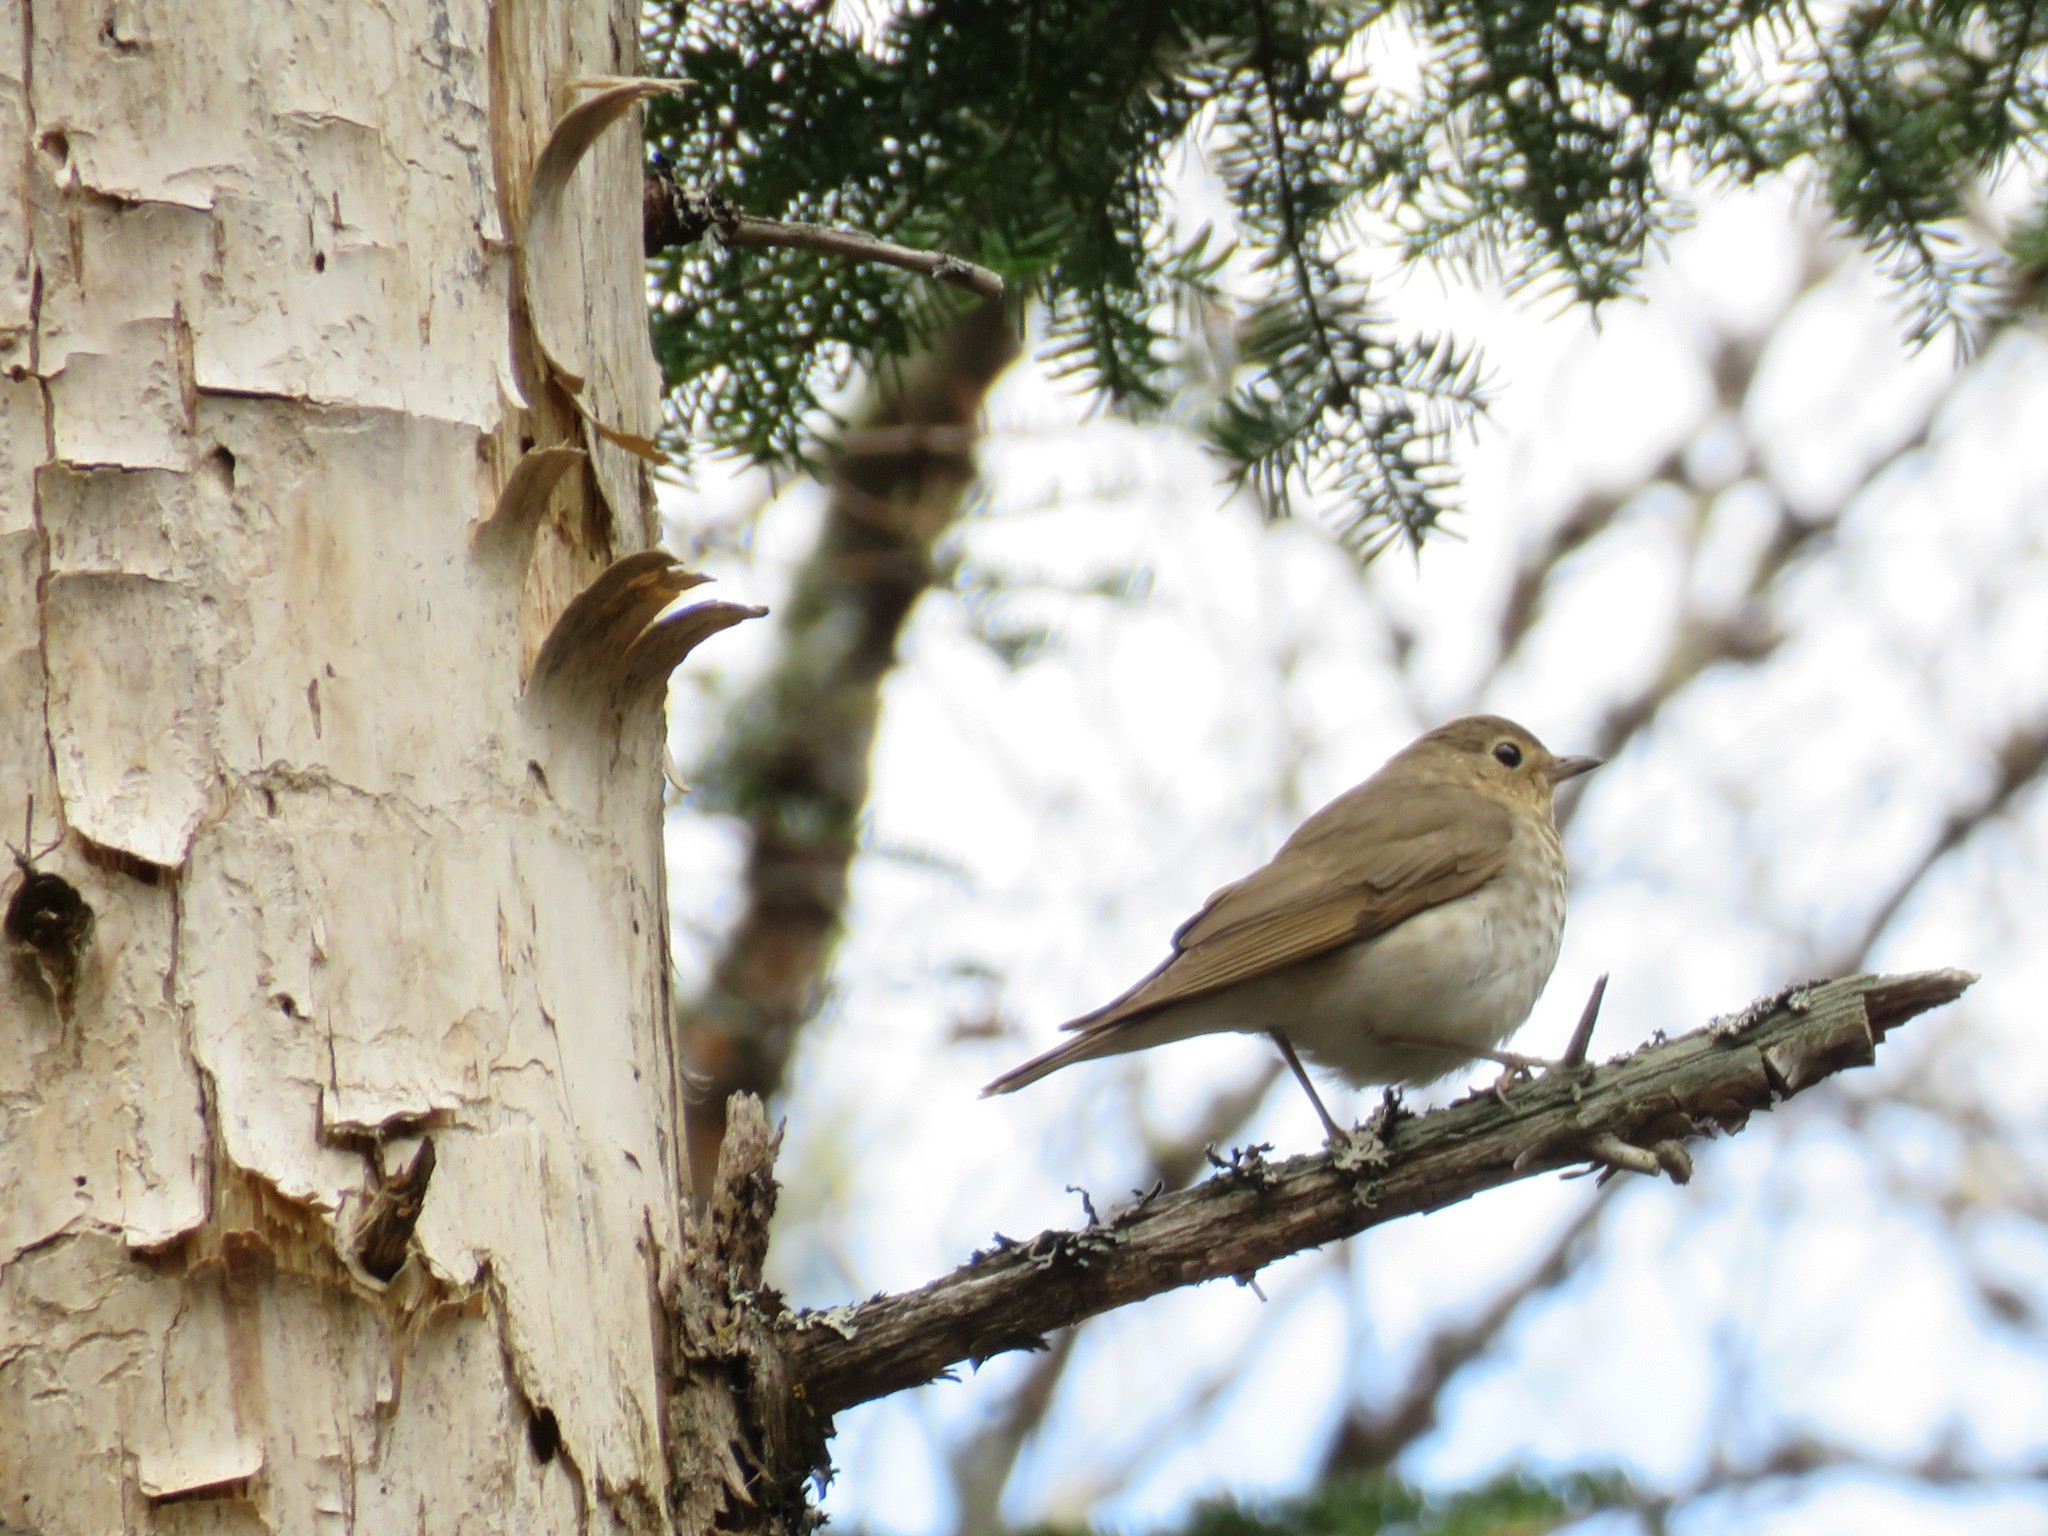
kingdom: Animalia
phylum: Chordata
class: Aves
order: Passeriformes
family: Turdidae
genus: Catharus
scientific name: Catharus ustulatus
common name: Swainson's thrush
